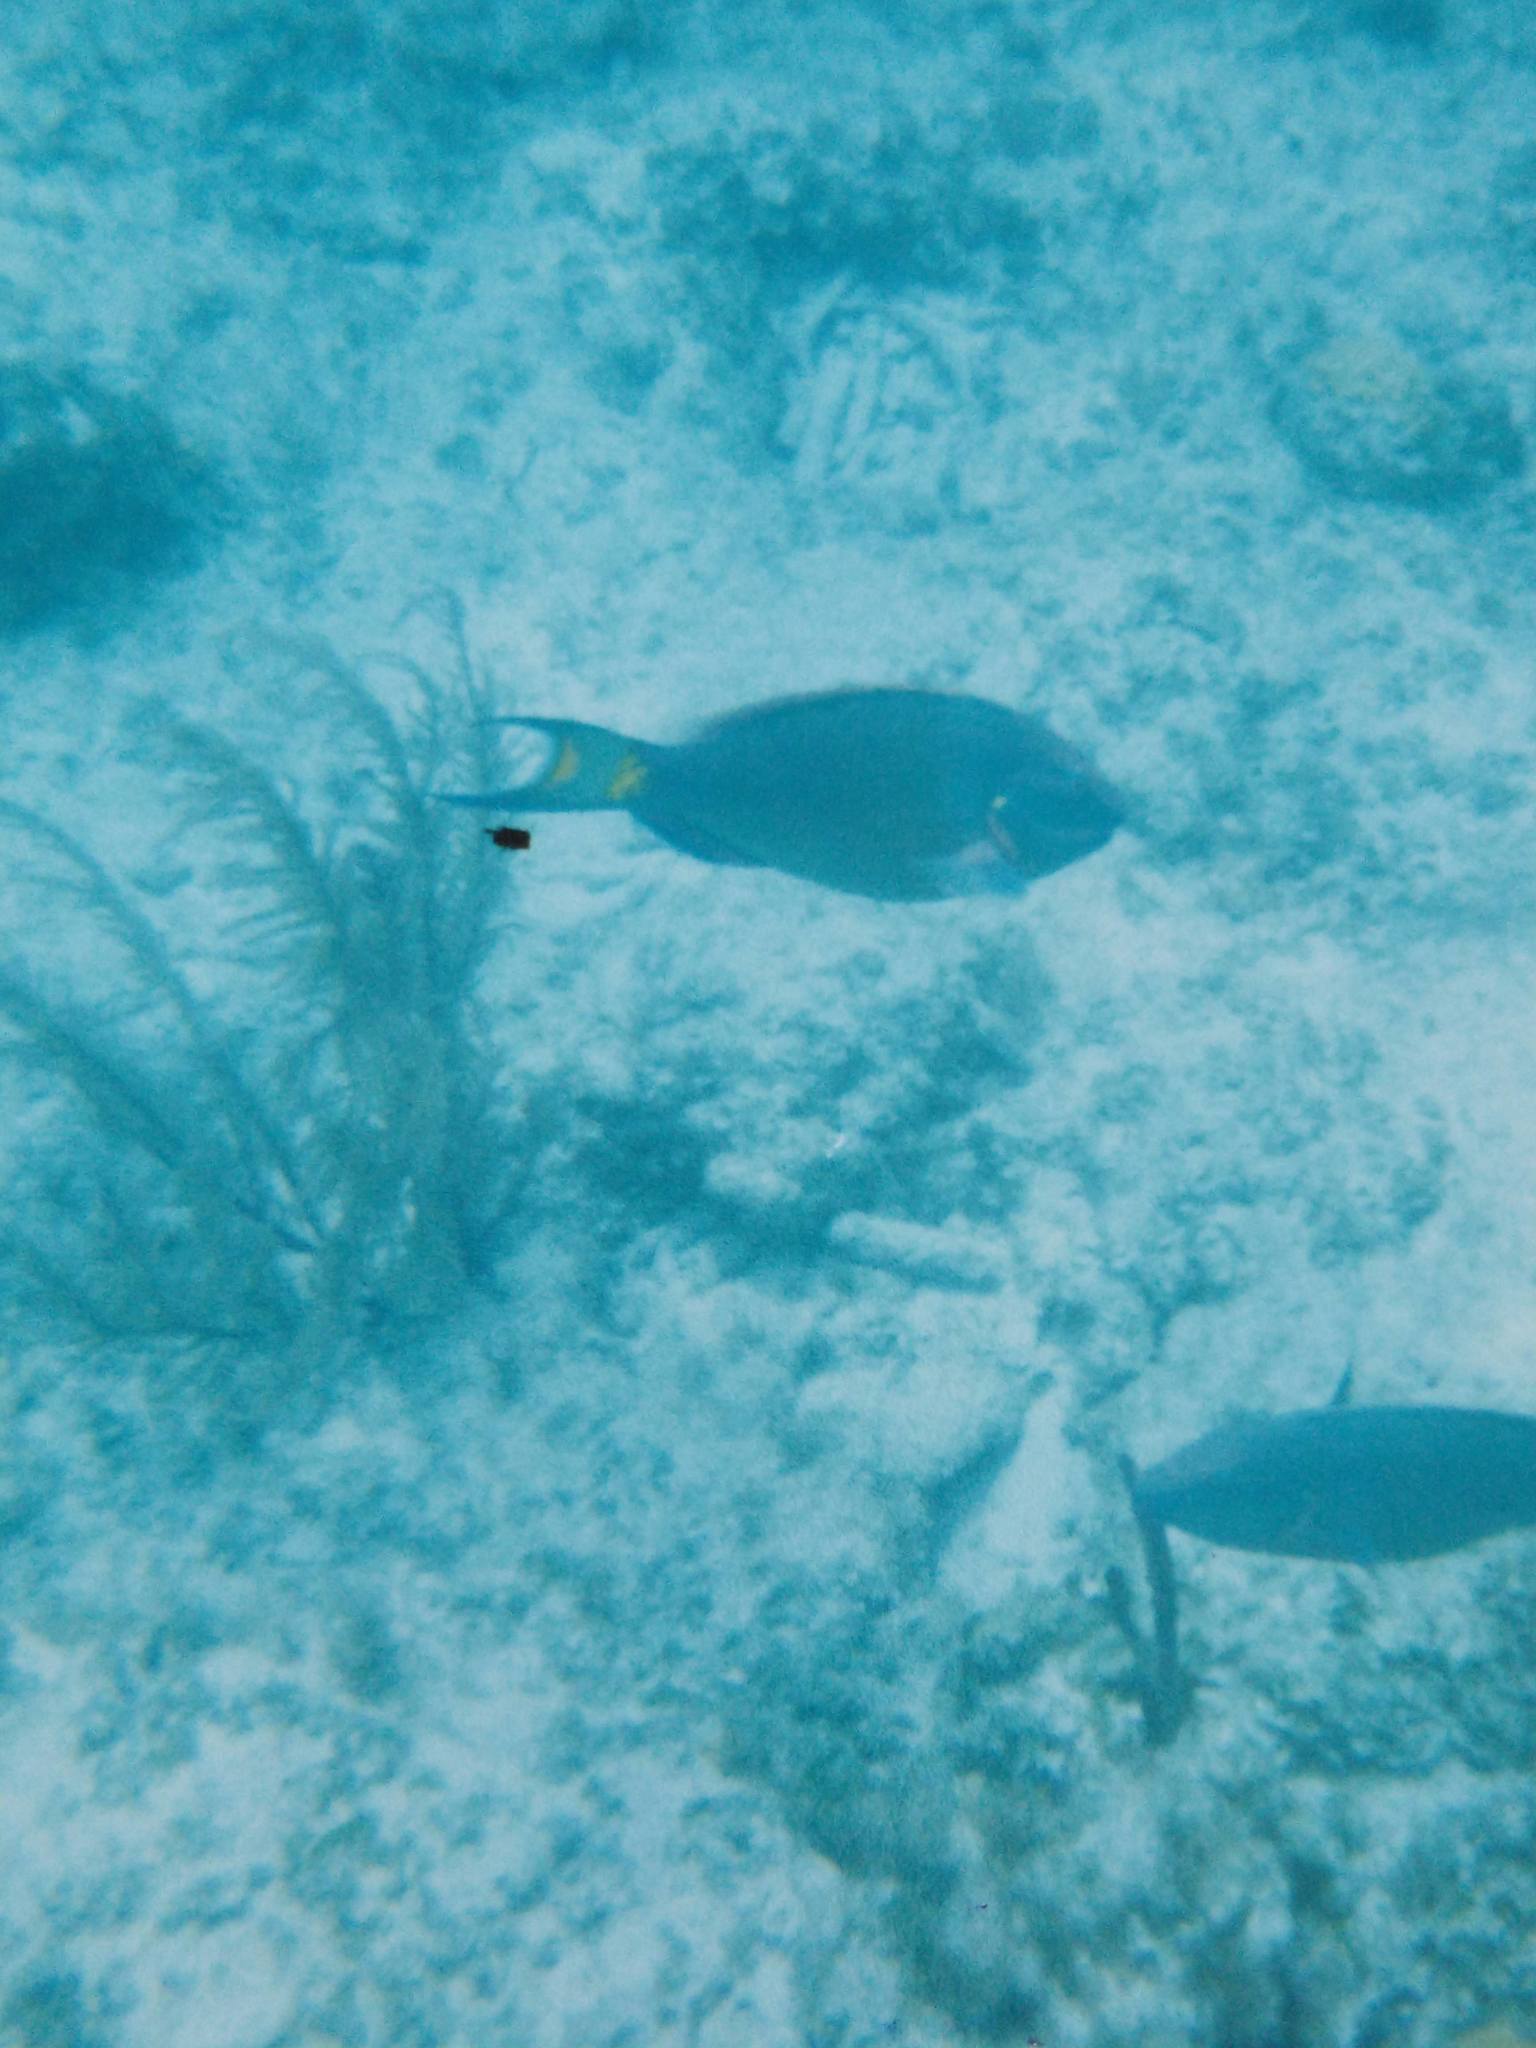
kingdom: Animalia
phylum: Chordata
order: Perciformes
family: Scaridae
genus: Sparisoma
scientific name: Sparisoma viride
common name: Stoplight parrotfish
